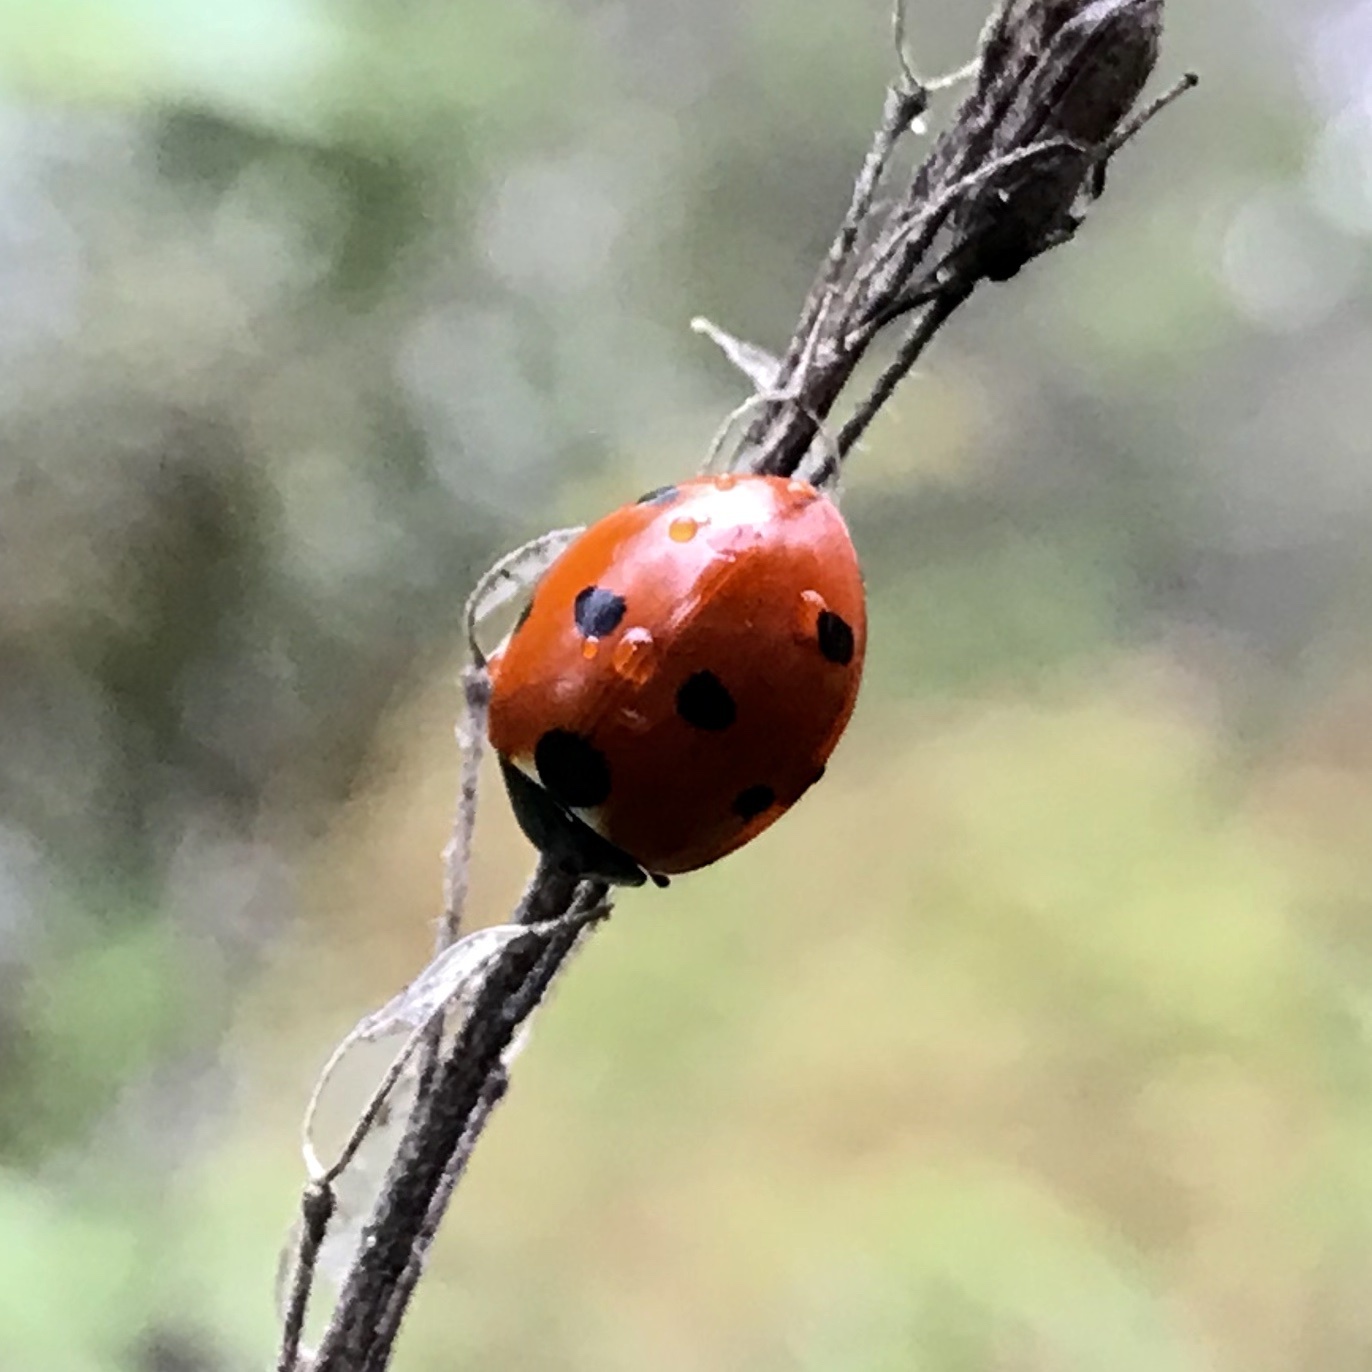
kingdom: Animalia
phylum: Arthropoda
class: Insecta
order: Coleoptera
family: Coccinellidae
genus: Coccinella
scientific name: Coccinella septempunctata
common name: Sevenspotted lady beetle
